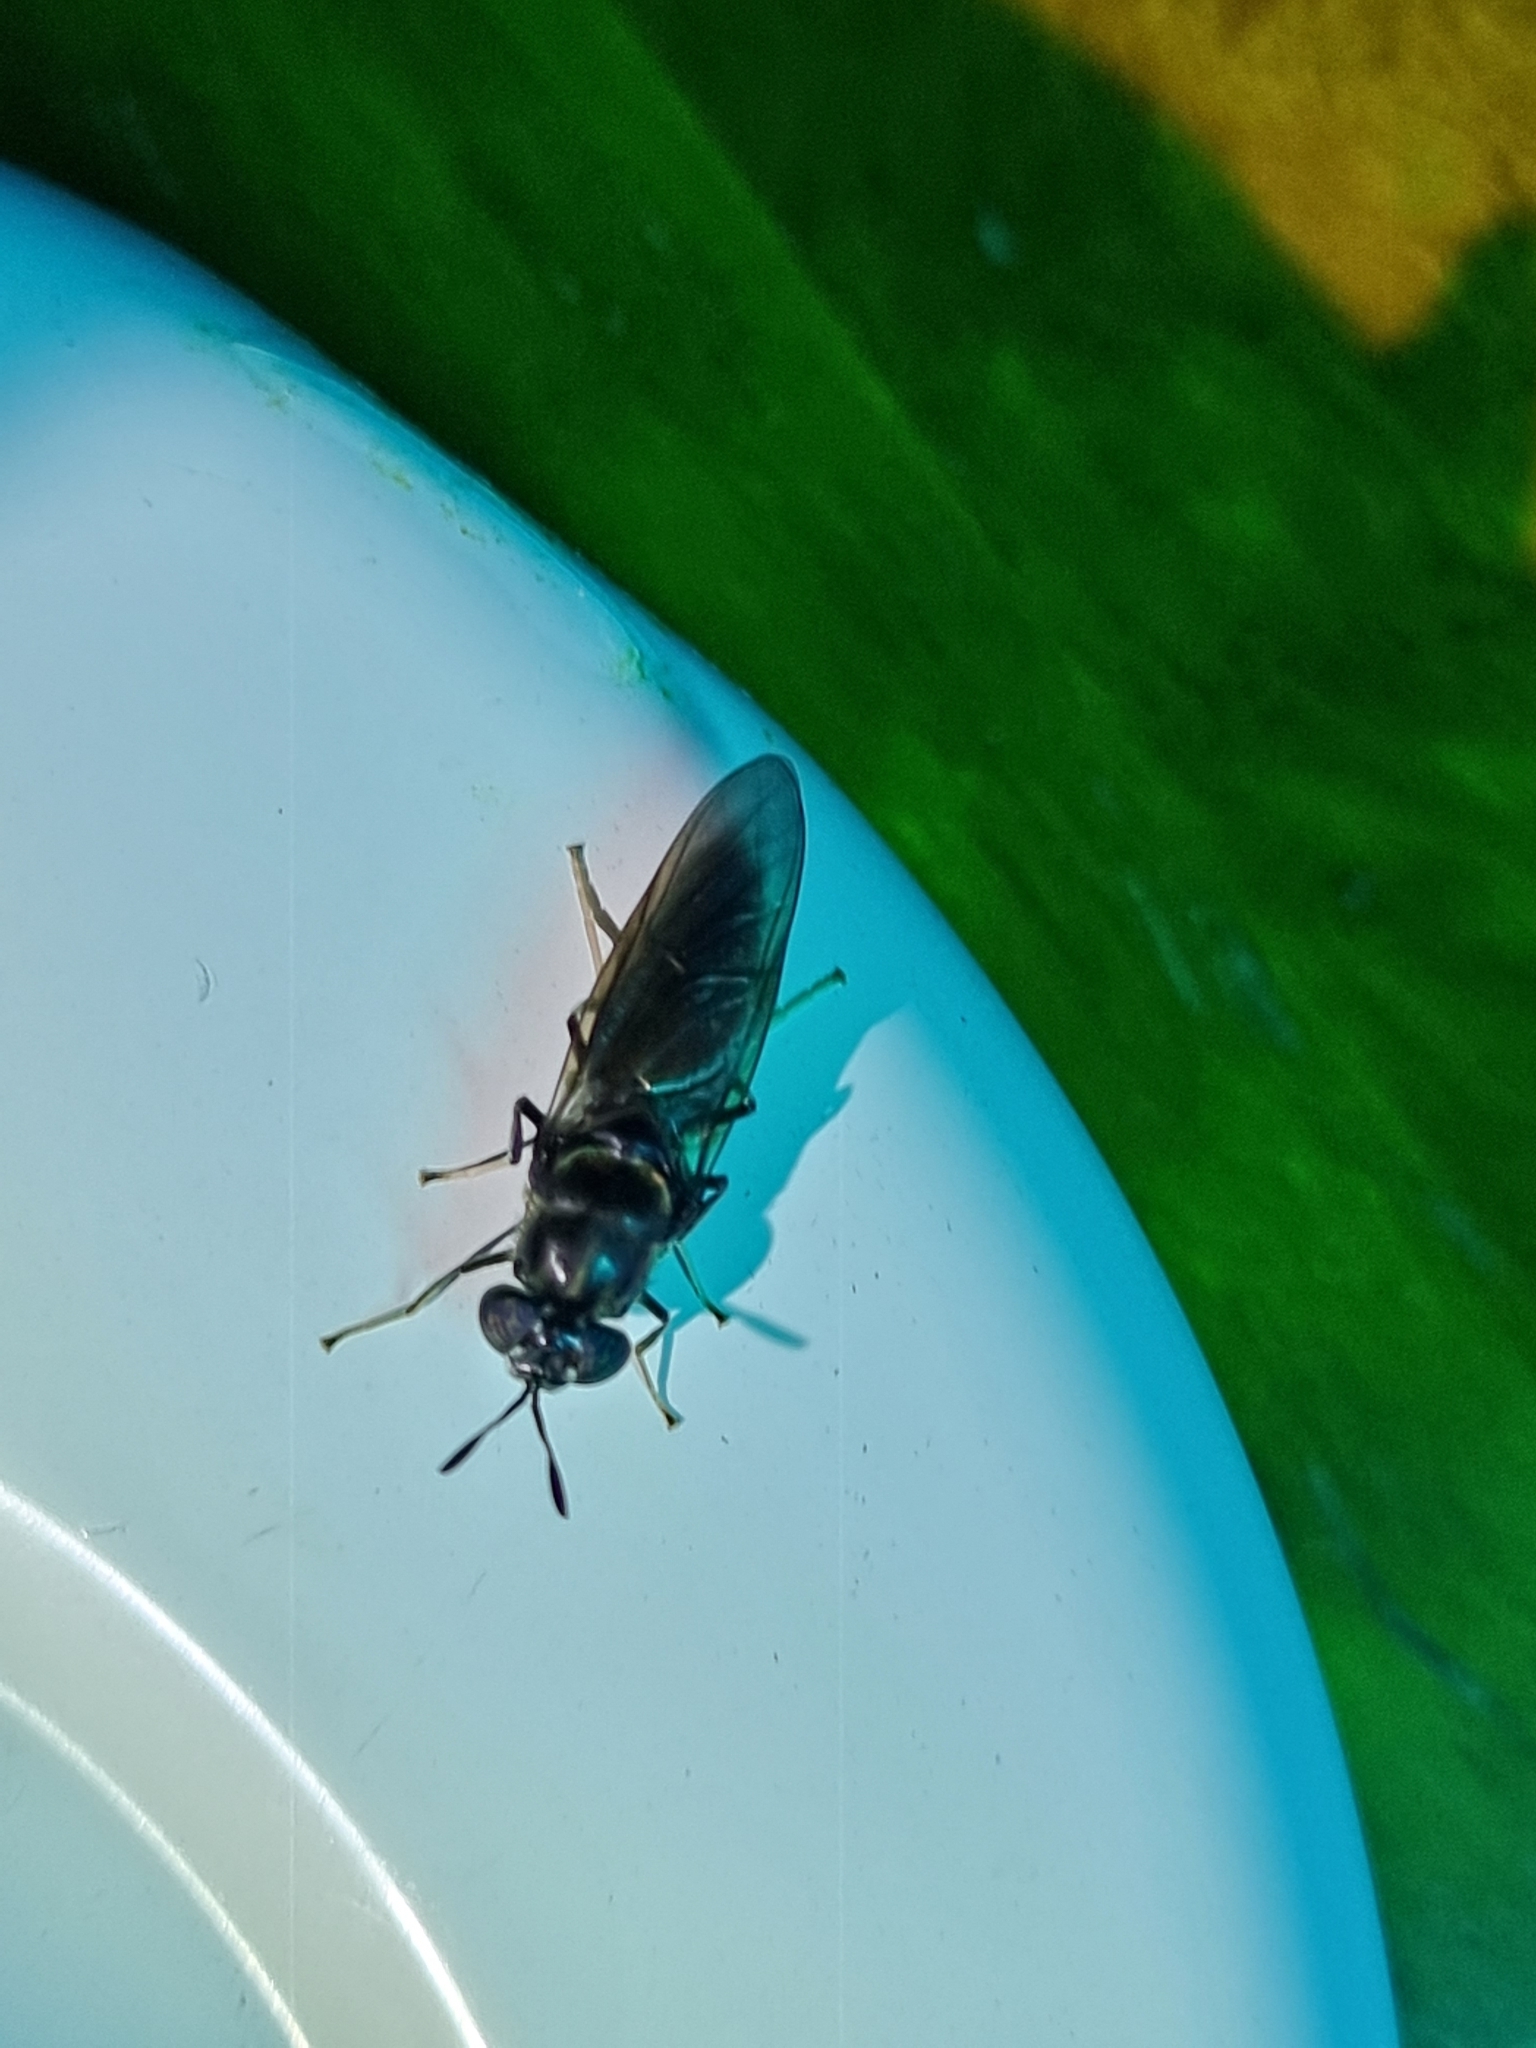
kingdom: Animalia
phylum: Arthropoda
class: Insecta
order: Diptera
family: Stratiomyidae
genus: Hermetia
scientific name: Hermetia illucens
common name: Black soldier fly
